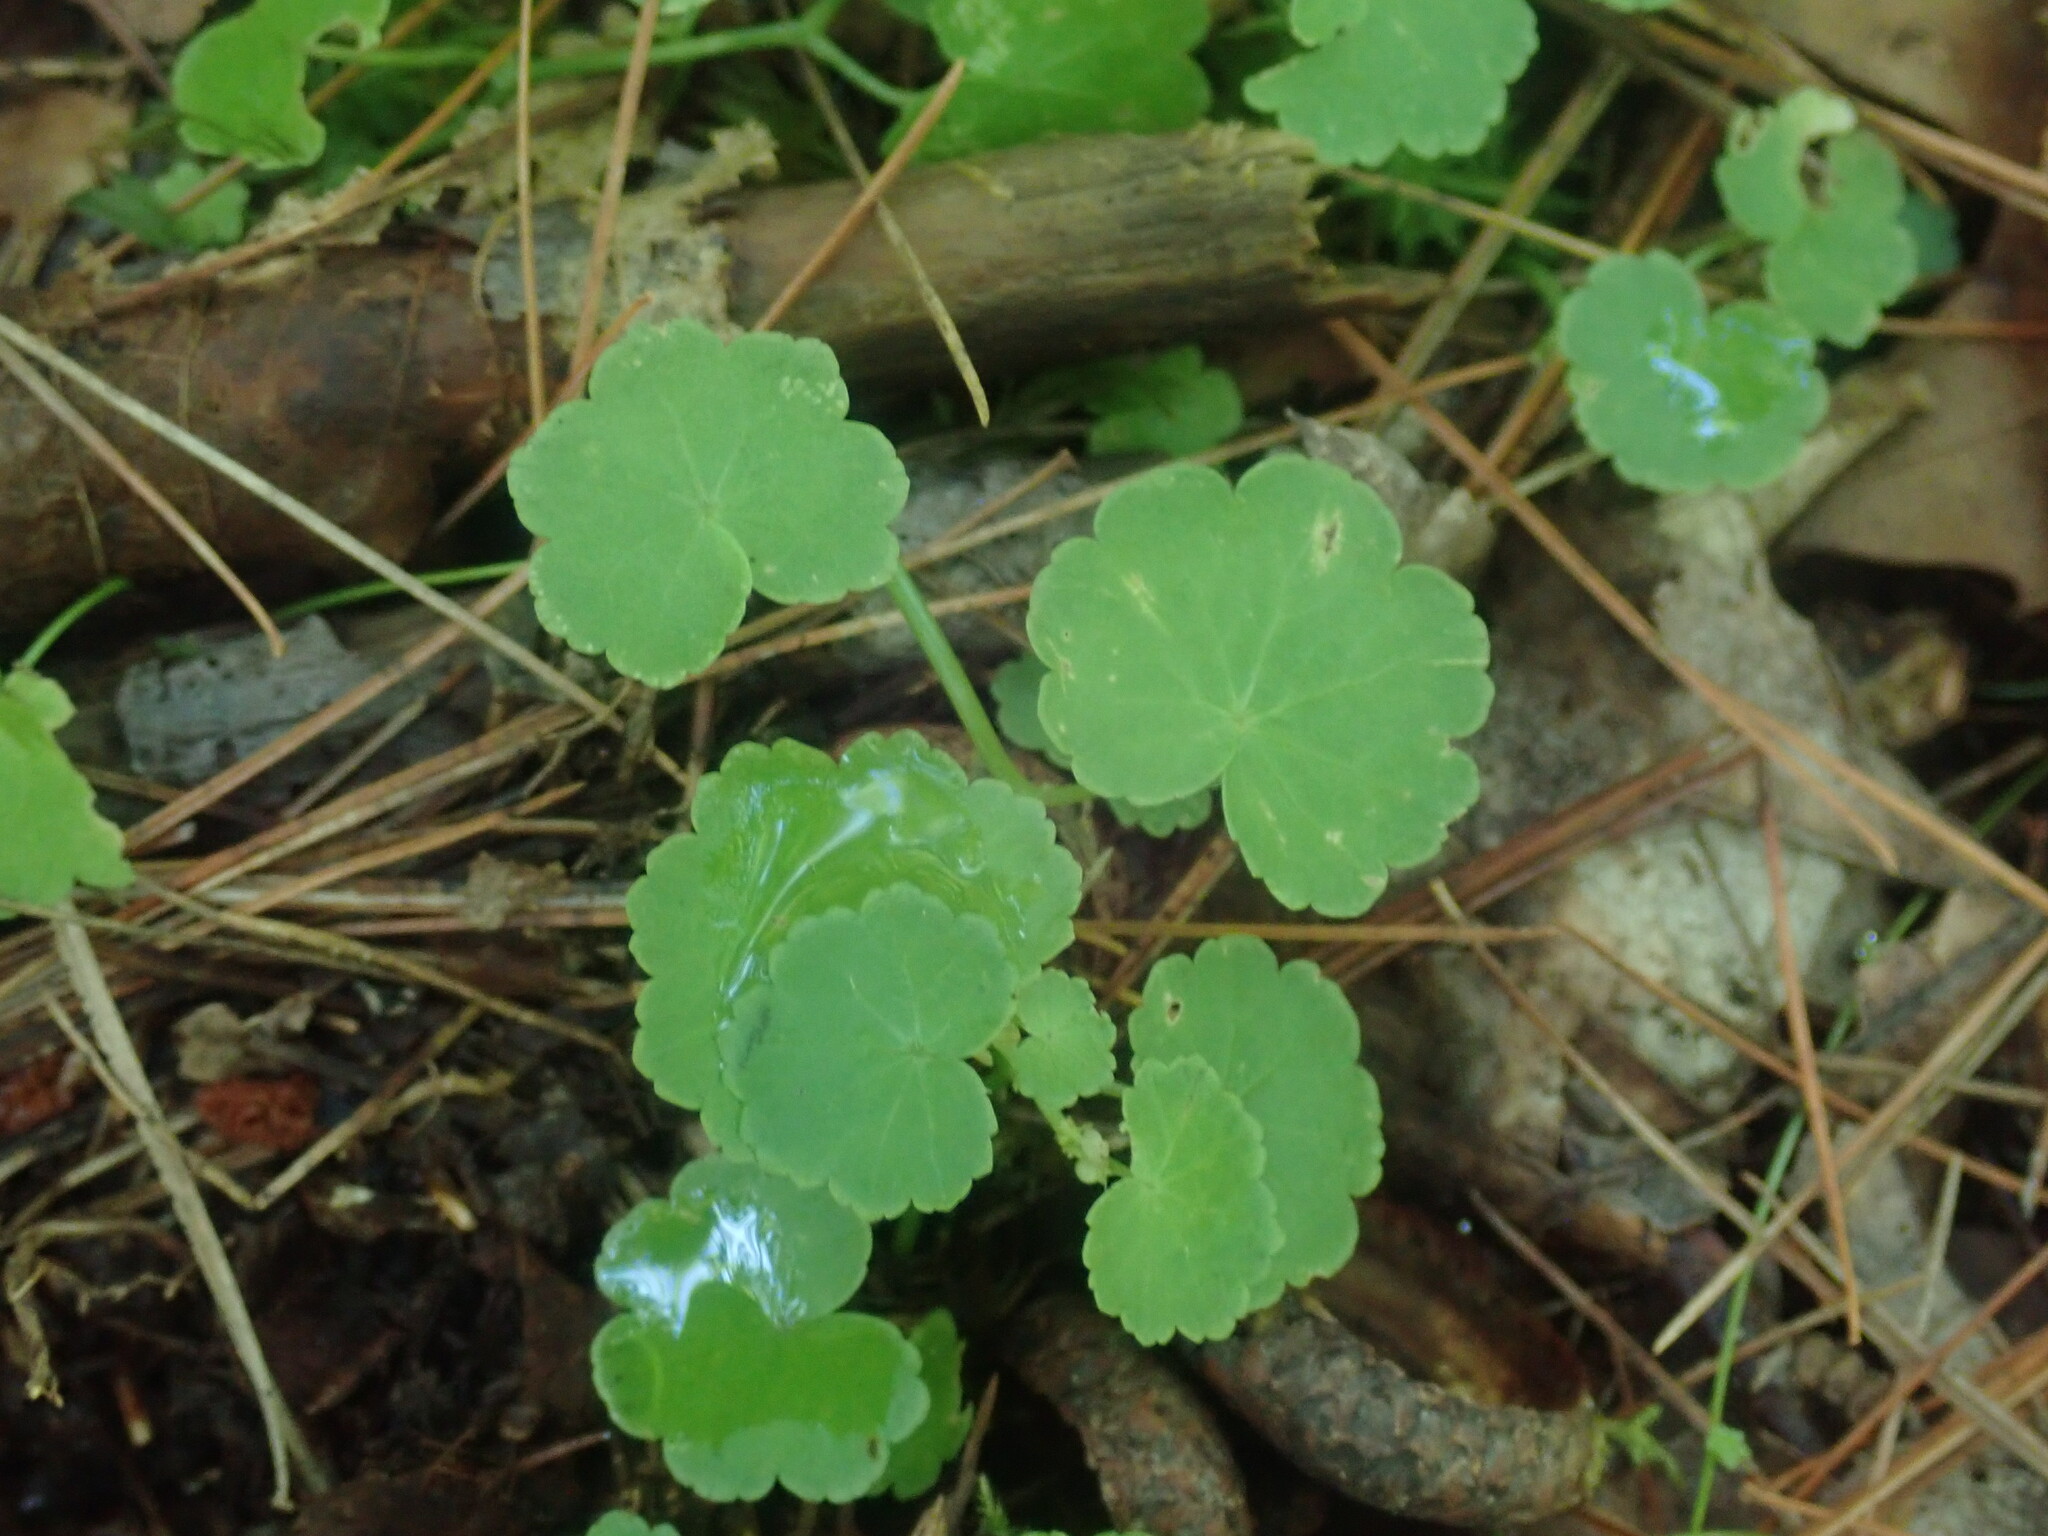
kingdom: Plantae
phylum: Tracheophyta
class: Magnoliopsida
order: Apiales
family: Araliaceae
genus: Hydrocotyle
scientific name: Hydrocotyle americana
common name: American water-pennywort
